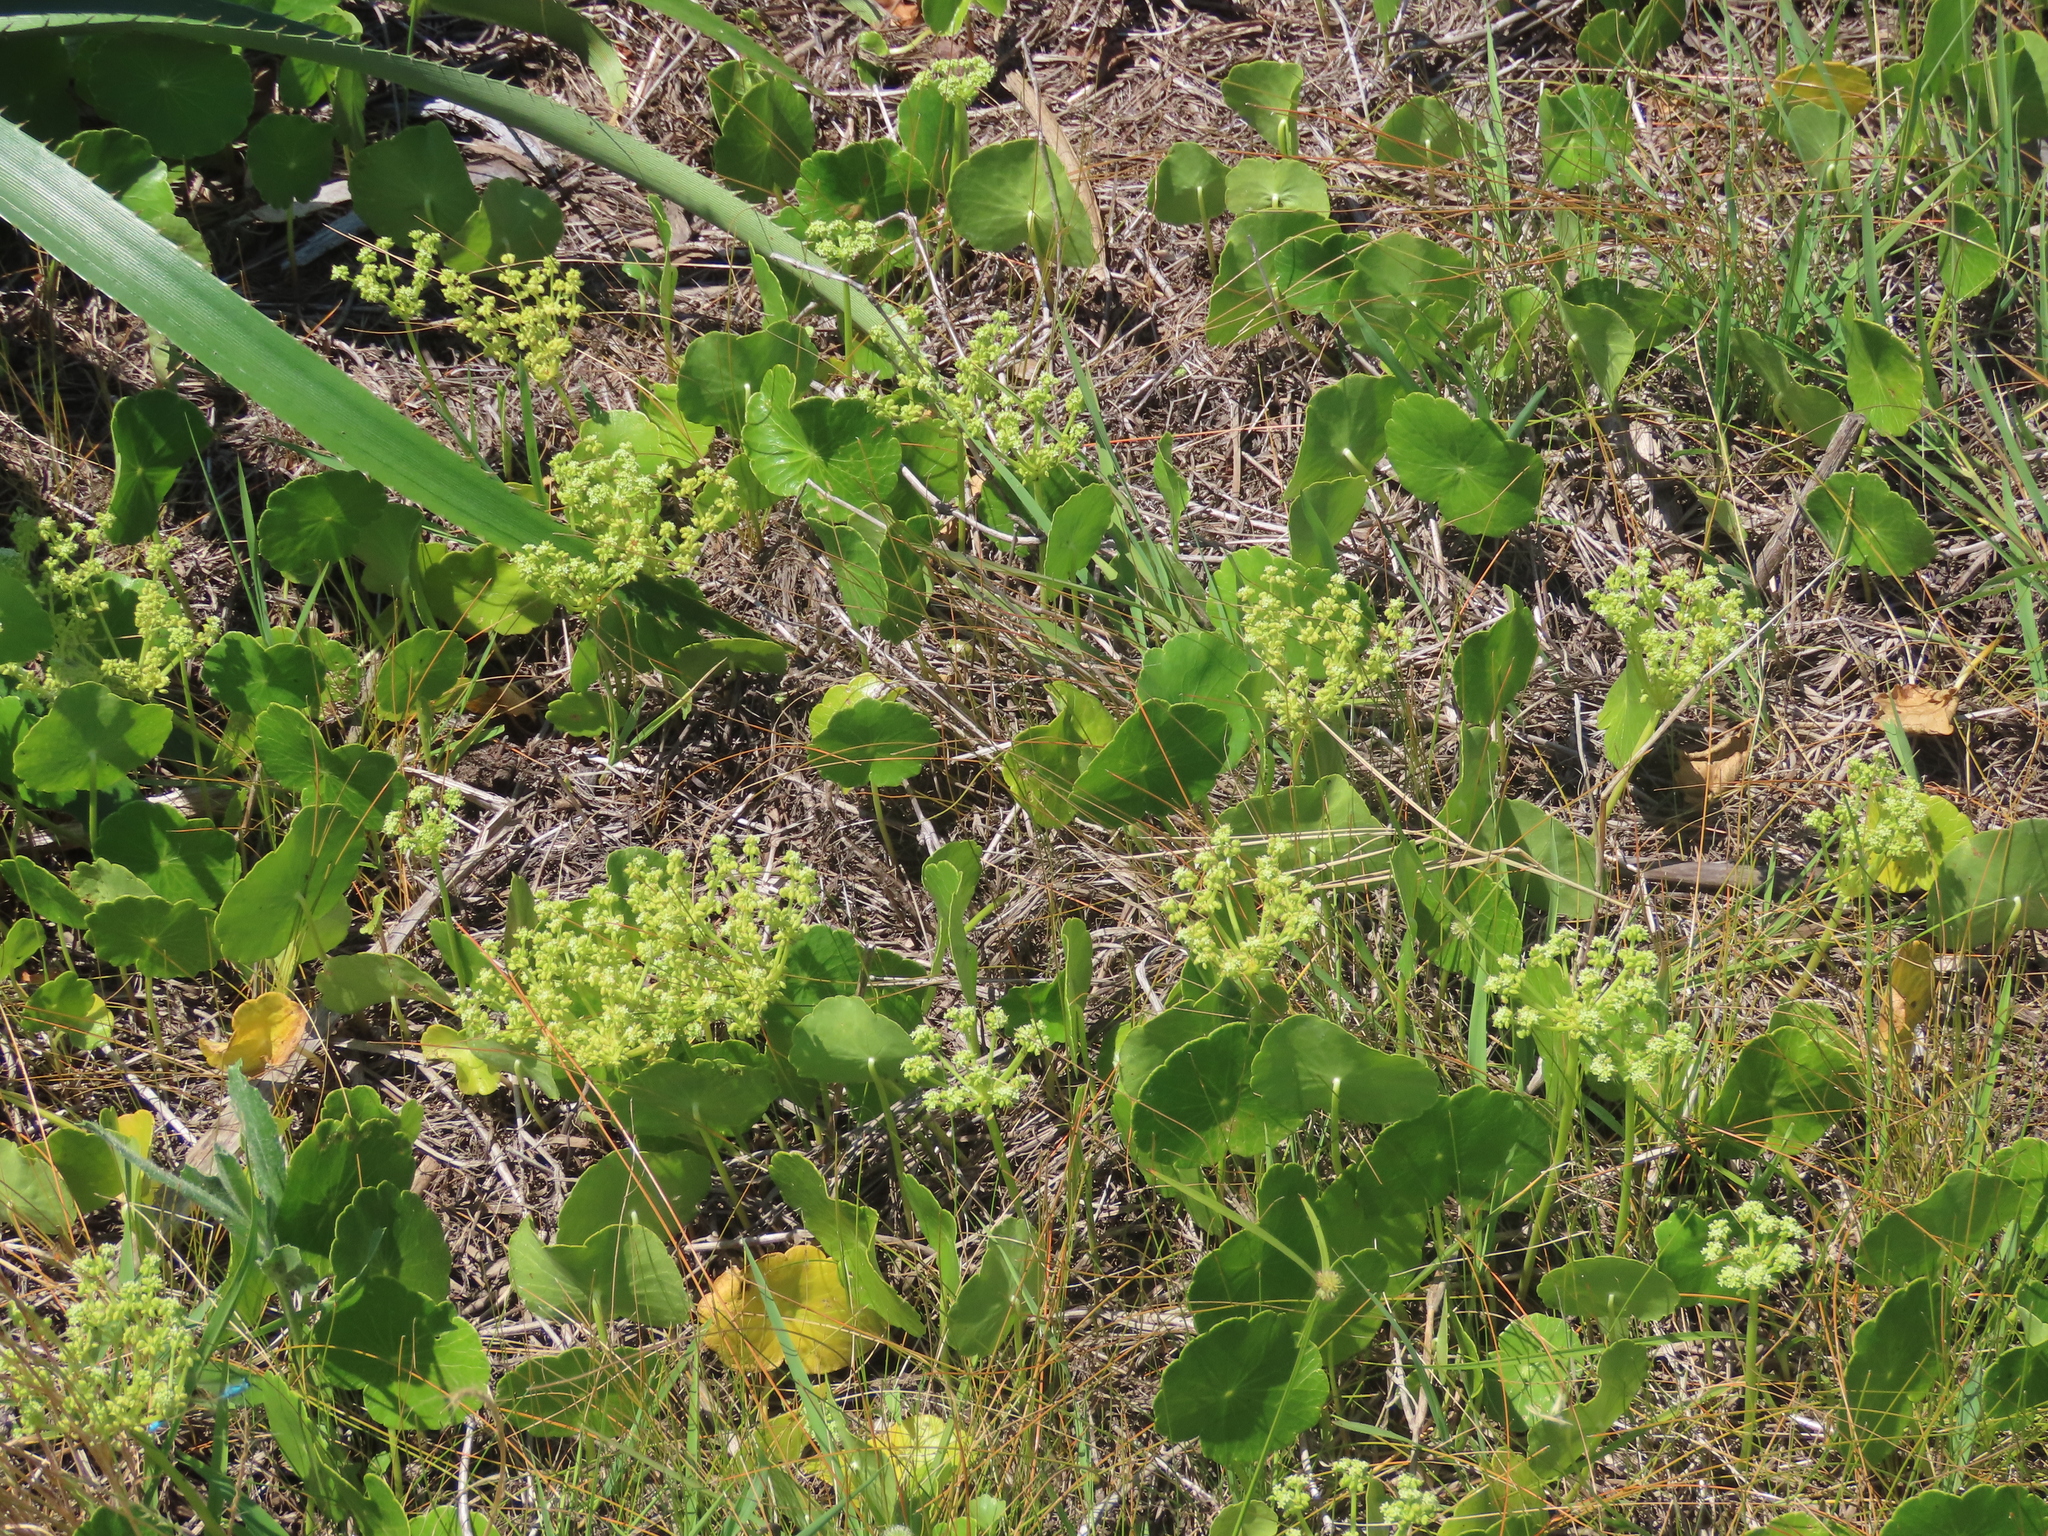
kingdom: Plantae
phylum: Tracheophyta
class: Magnoliopsida
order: Apiales
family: Araliaceae
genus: Hydrocotyle
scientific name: Hydrocotyle bonariensis
